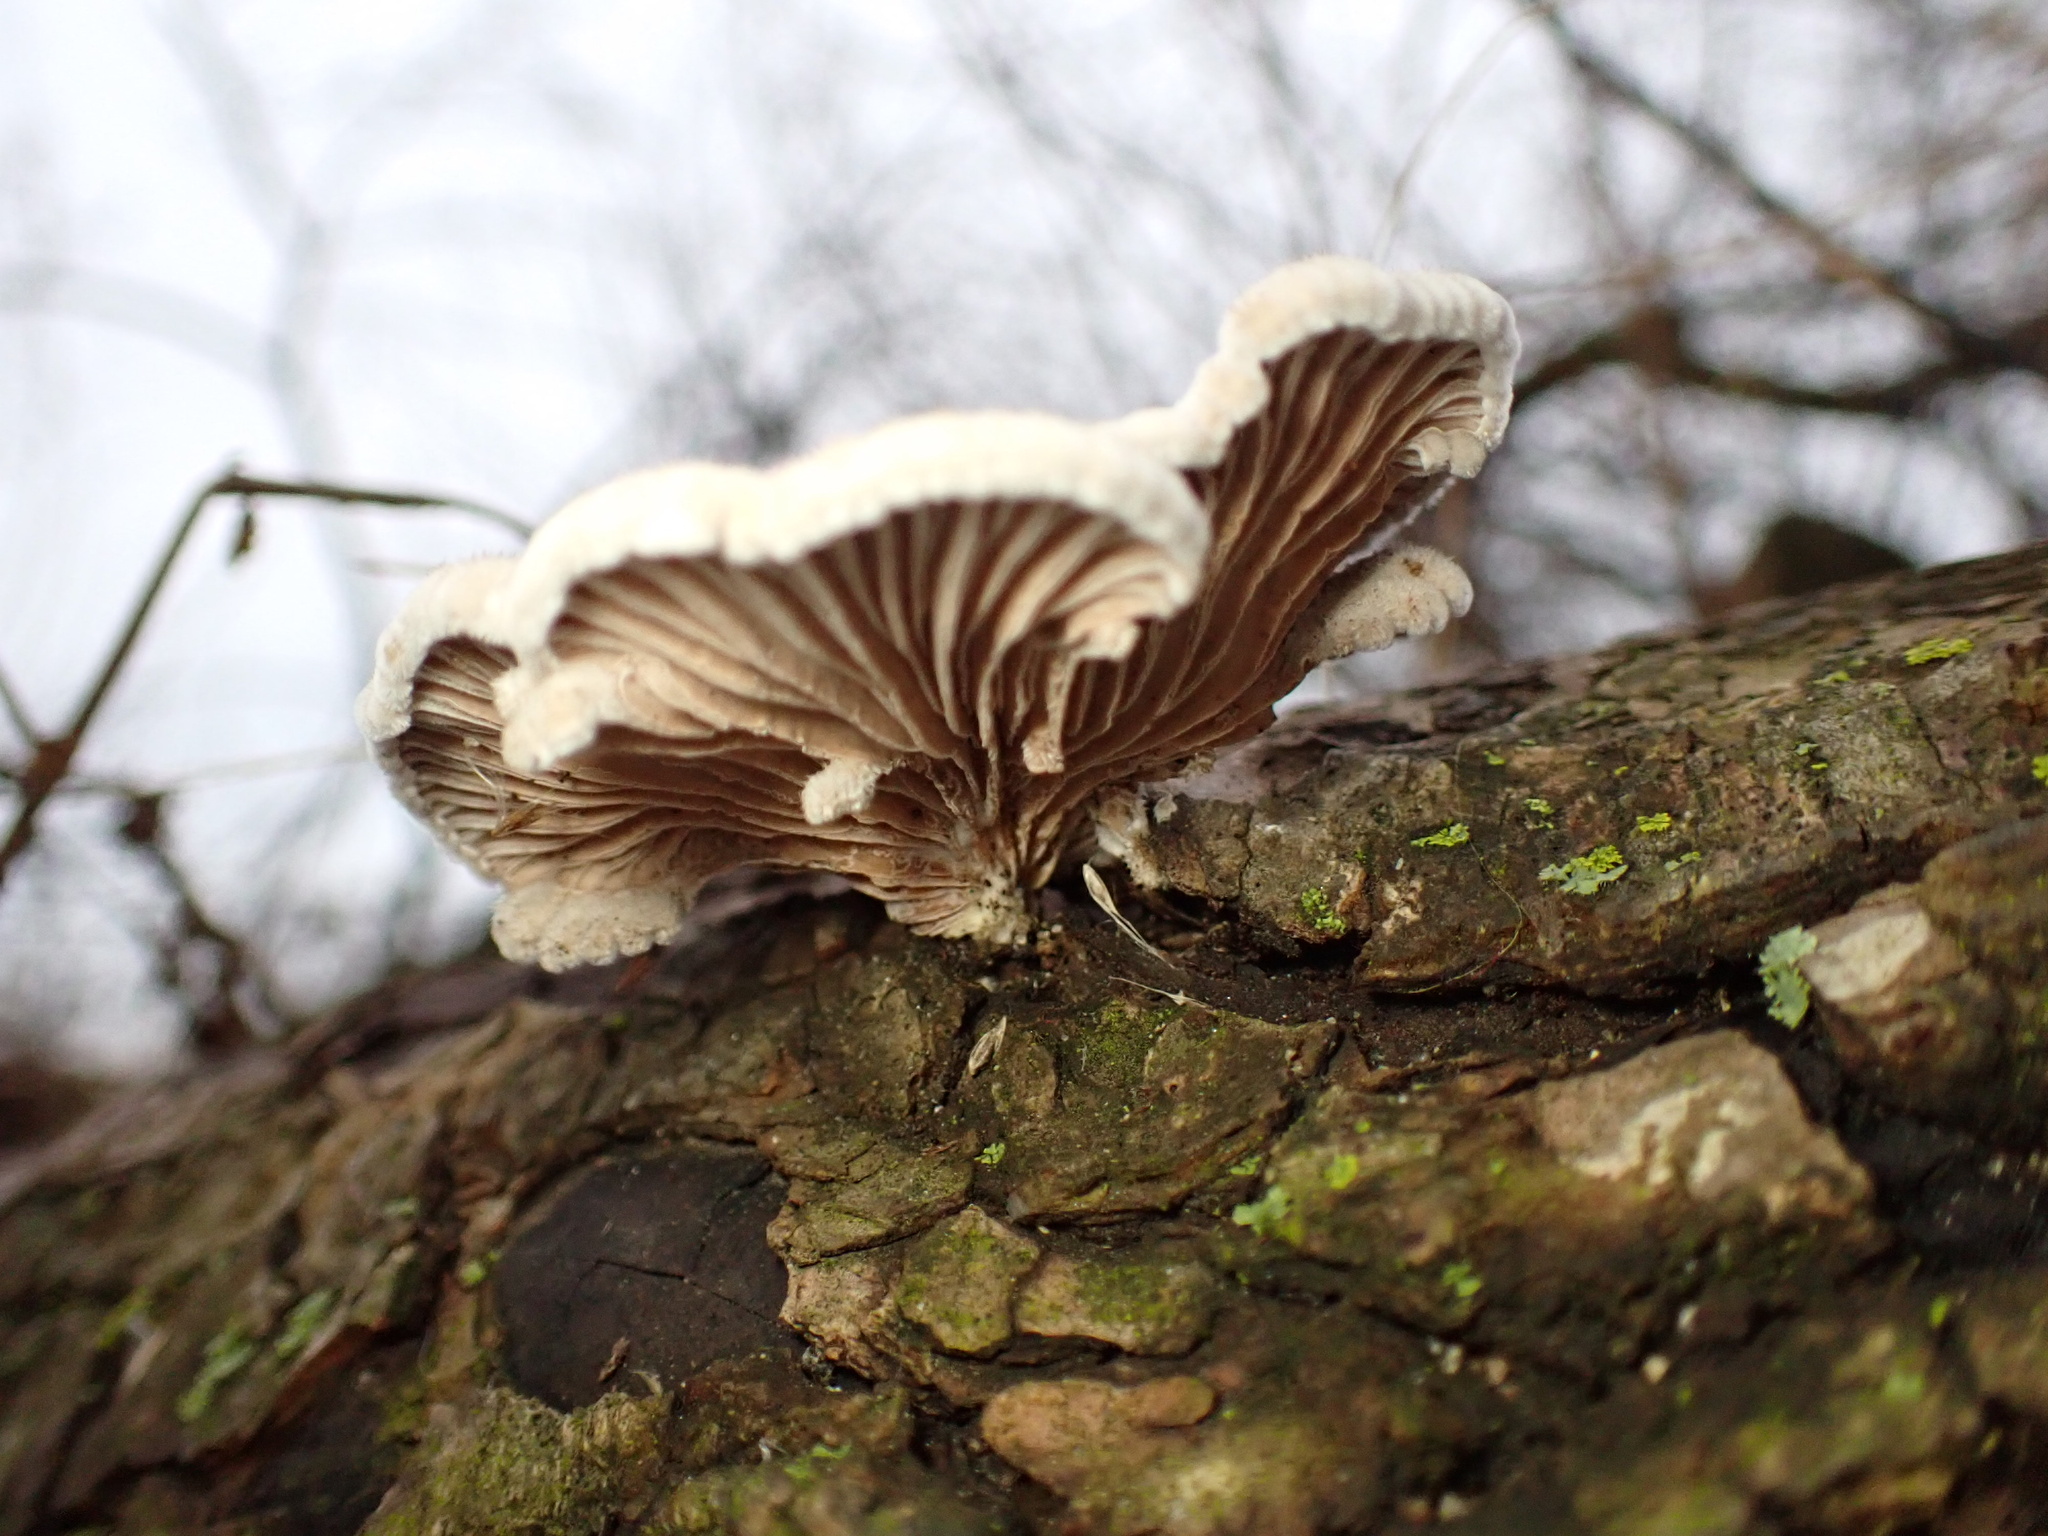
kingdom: Fungi
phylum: Basidiomycota
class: Agaricomycetes
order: Agaricales
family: Schizophyllaceae
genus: Schizophyllum
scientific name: Schizophyllum commune
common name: Common porecrust
